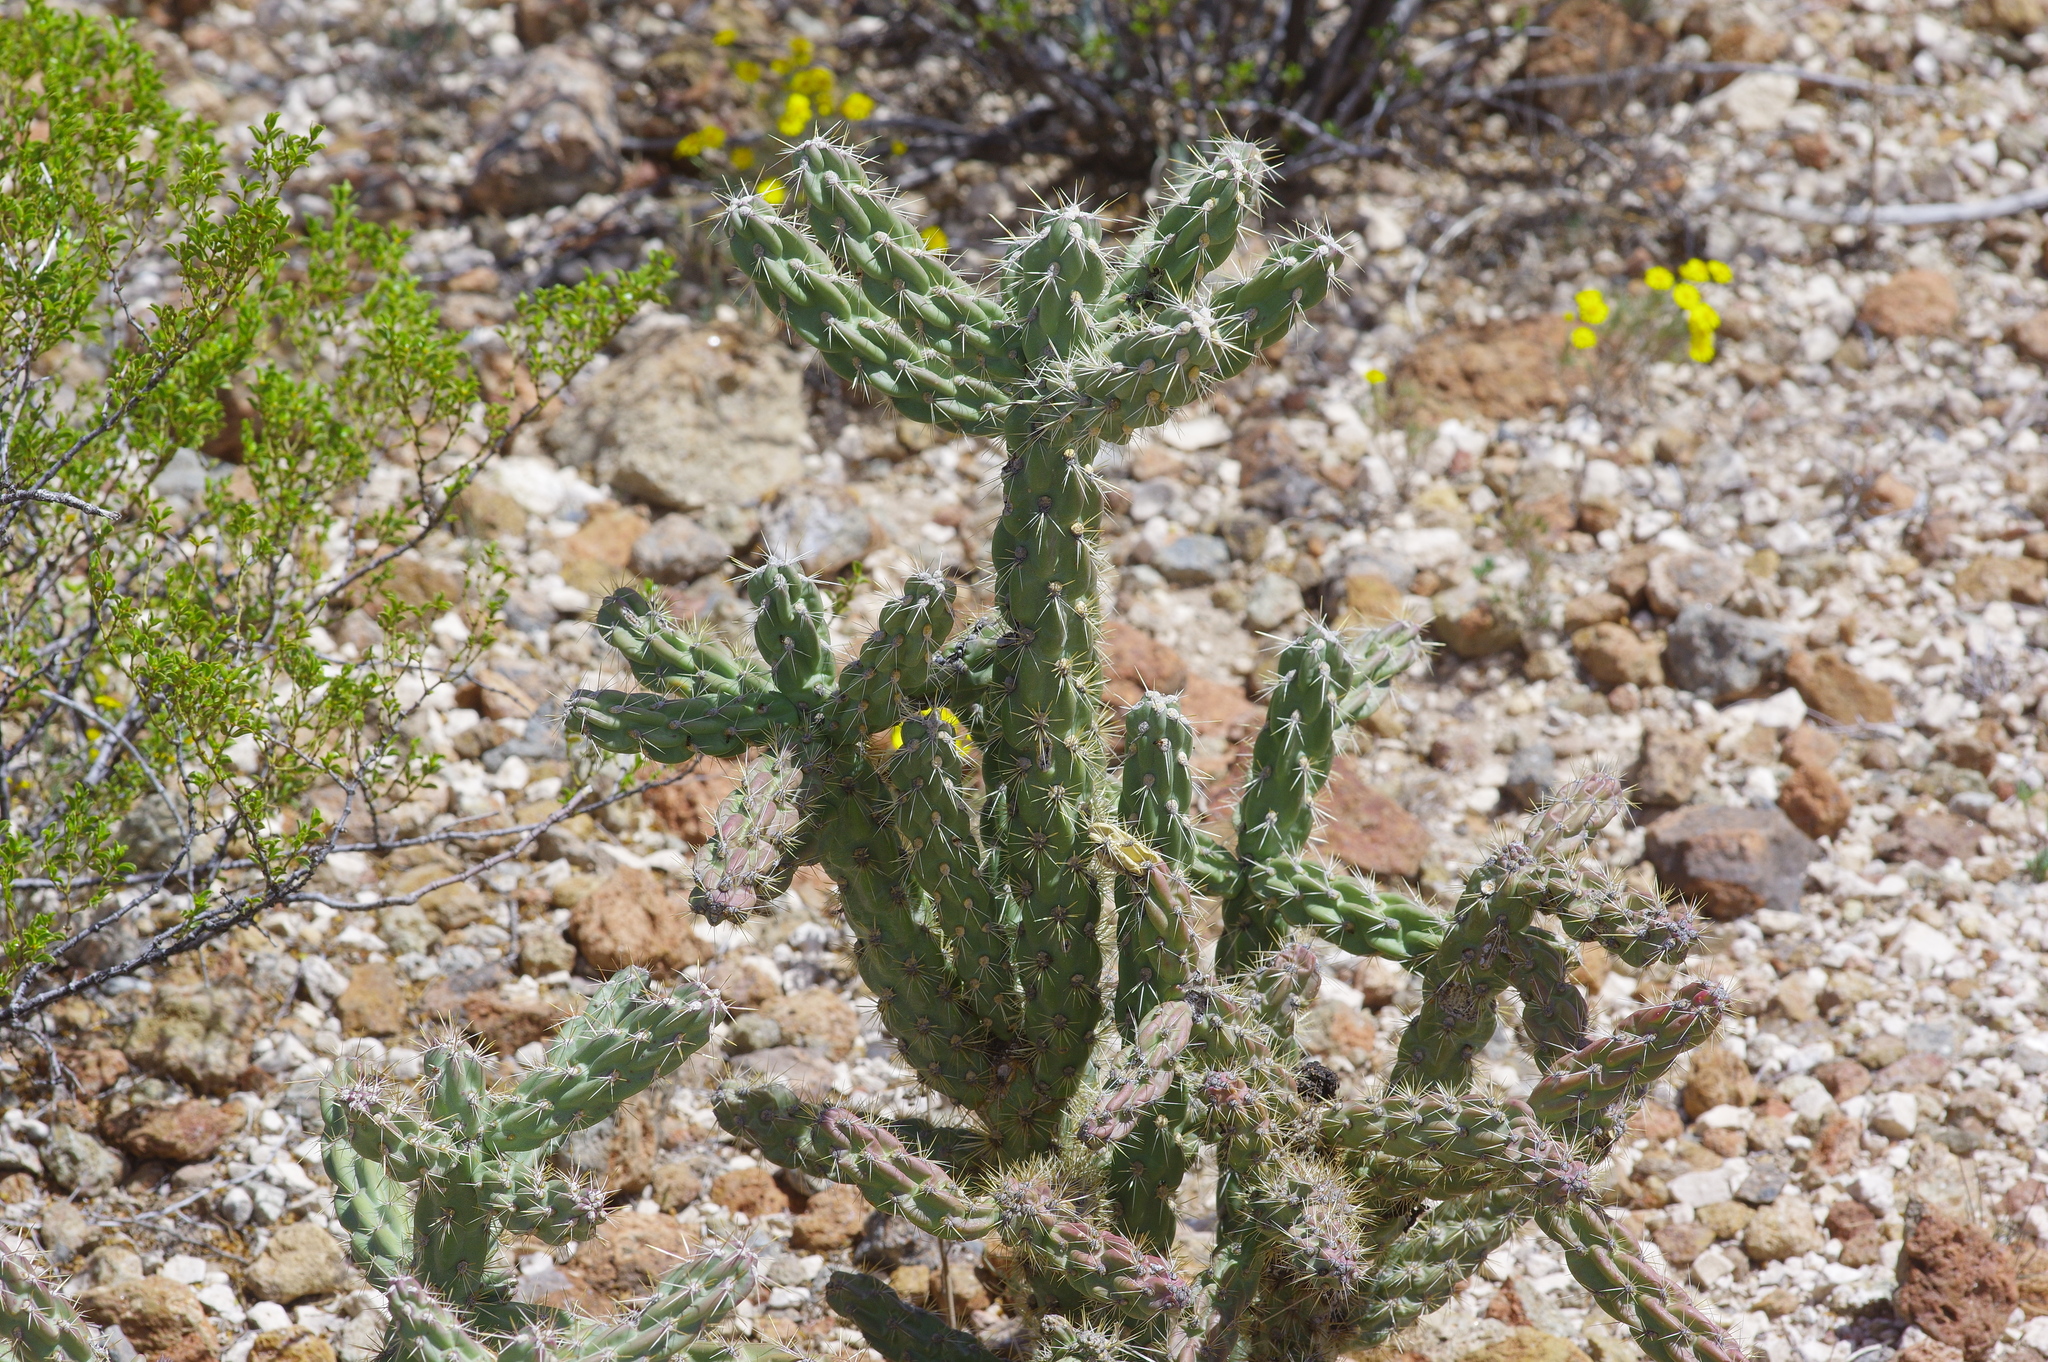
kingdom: Plantae
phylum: Tracheophyta
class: Magnoliopsida
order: Caryophyllales
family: Cactaceae
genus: Cylindropuntia
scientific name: Cylindropuntia imbricata
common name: Candelabrum cactus
